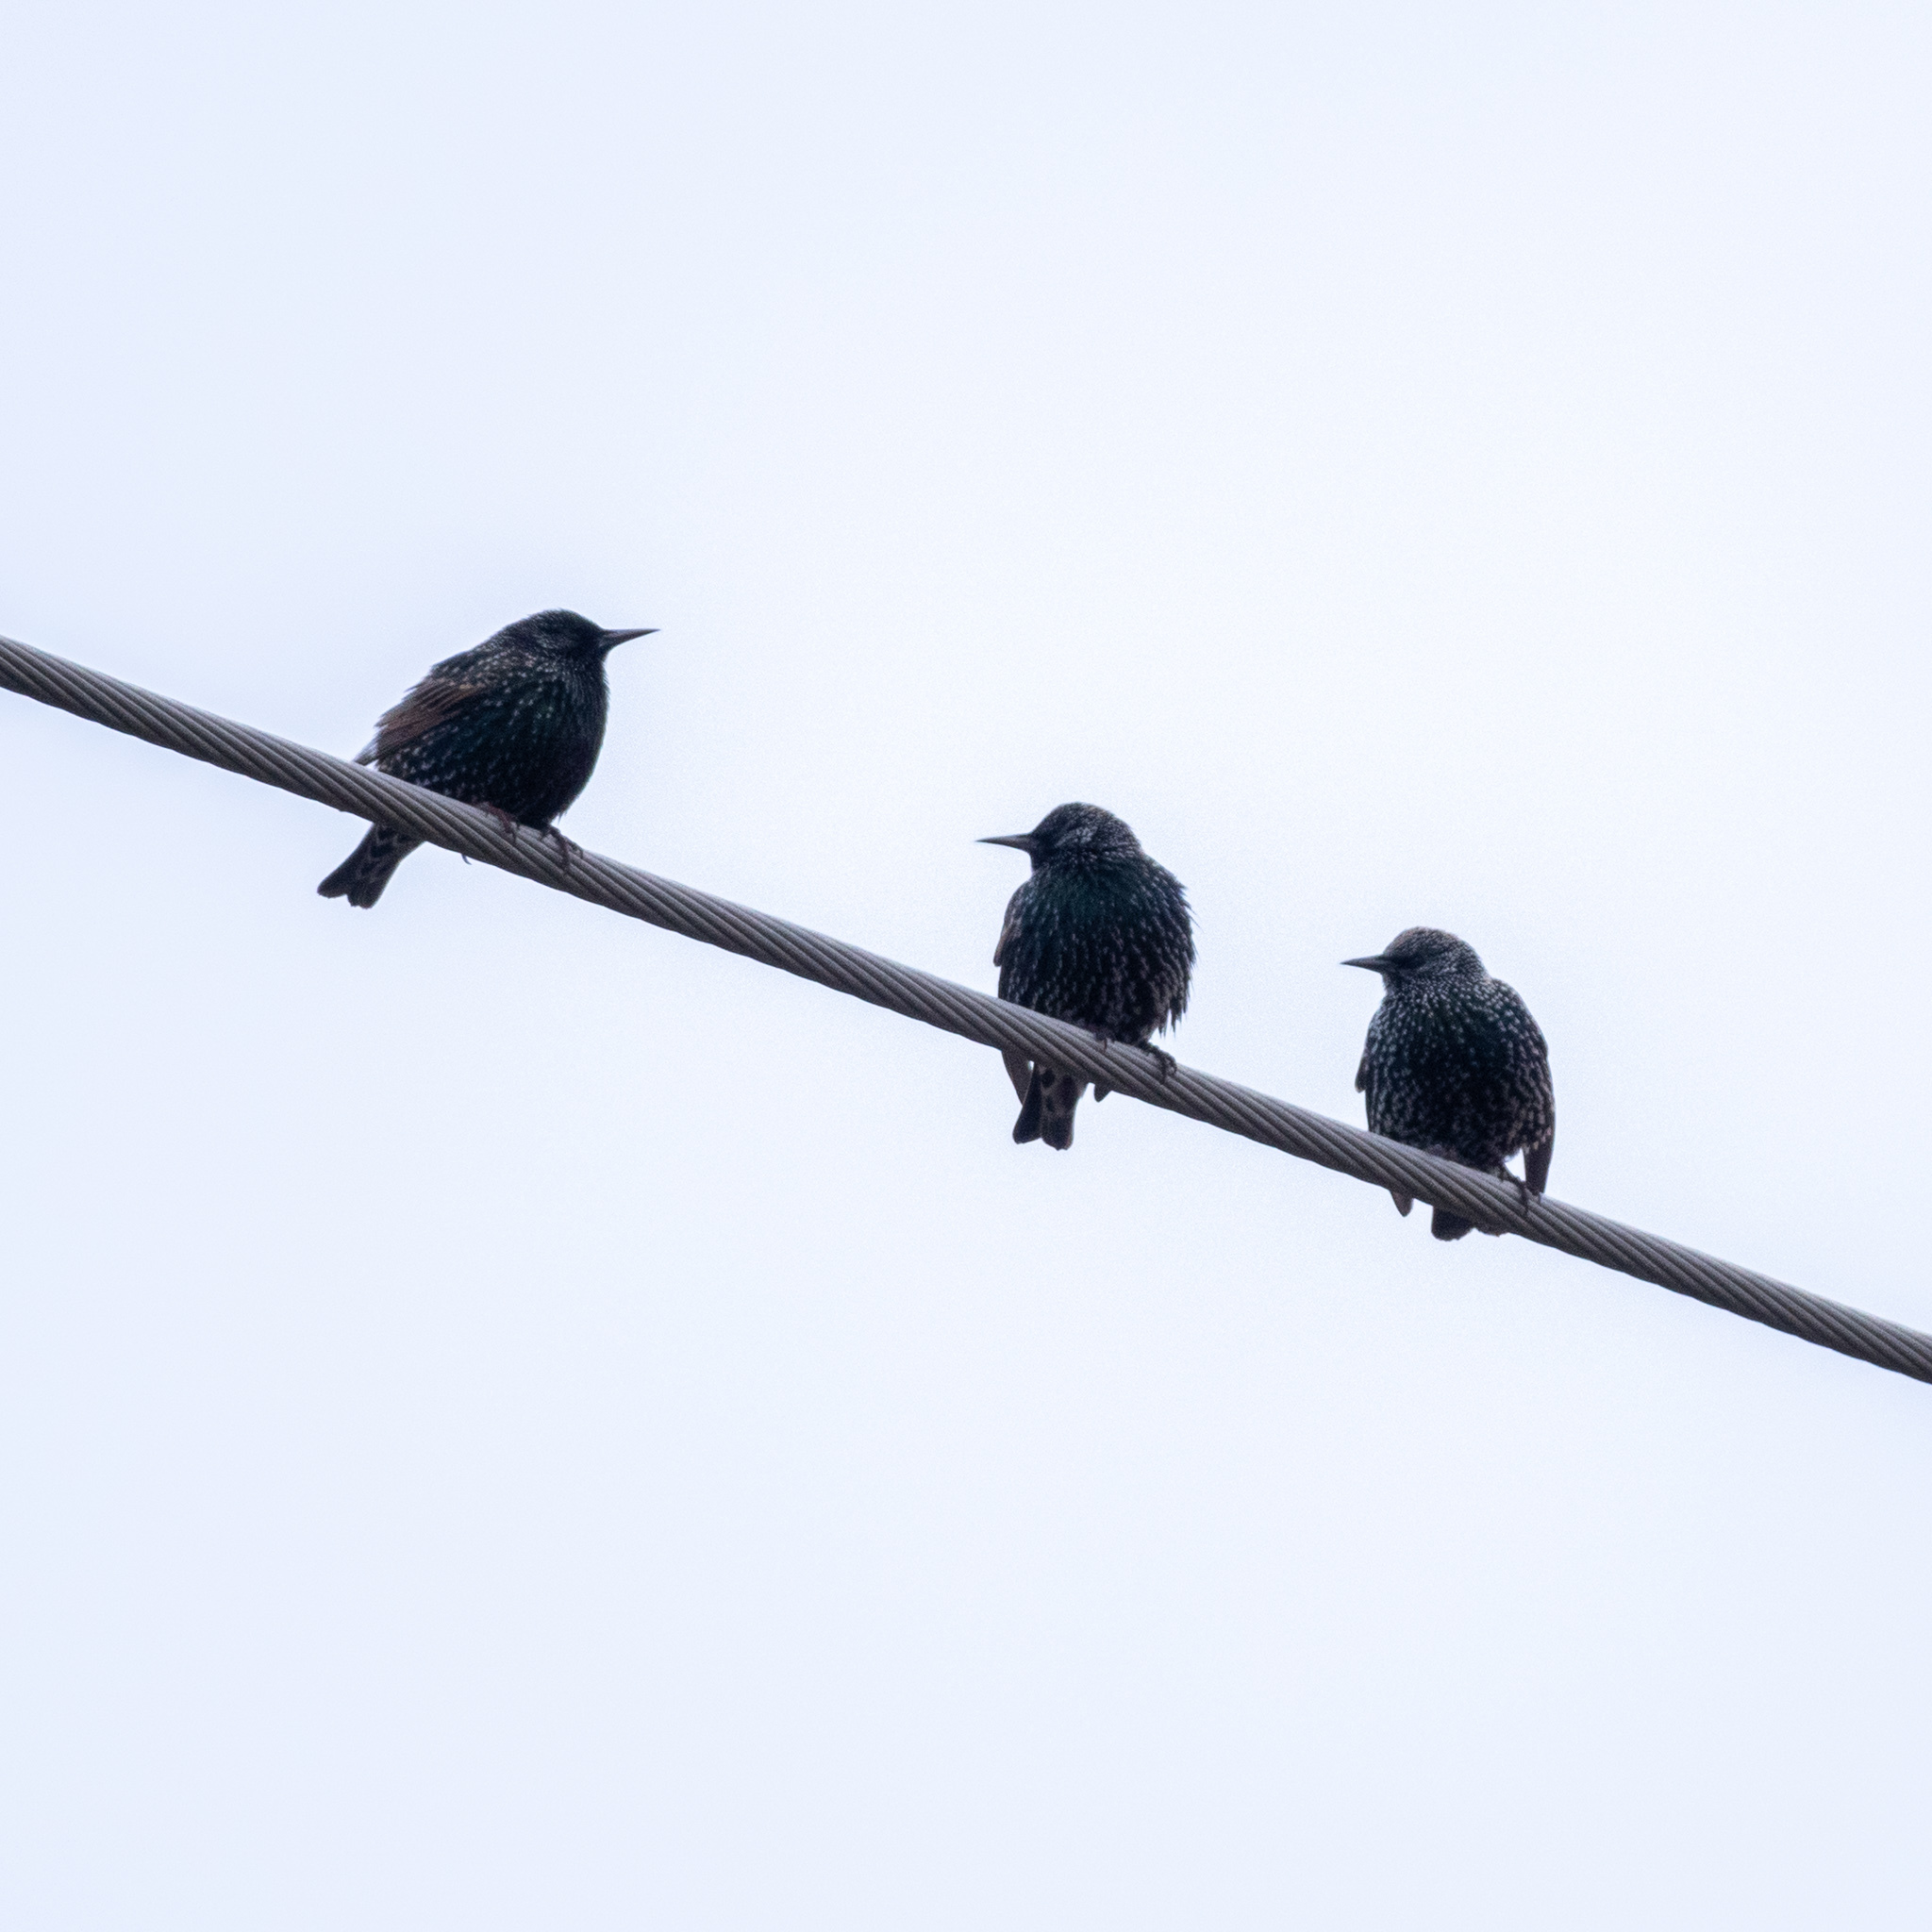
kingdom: Animalia
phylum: Chordata
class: Aves
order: Passeriformes
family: Sturnidae
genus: Sturnus
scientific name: Sturnus vulgaris
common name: Common starling
